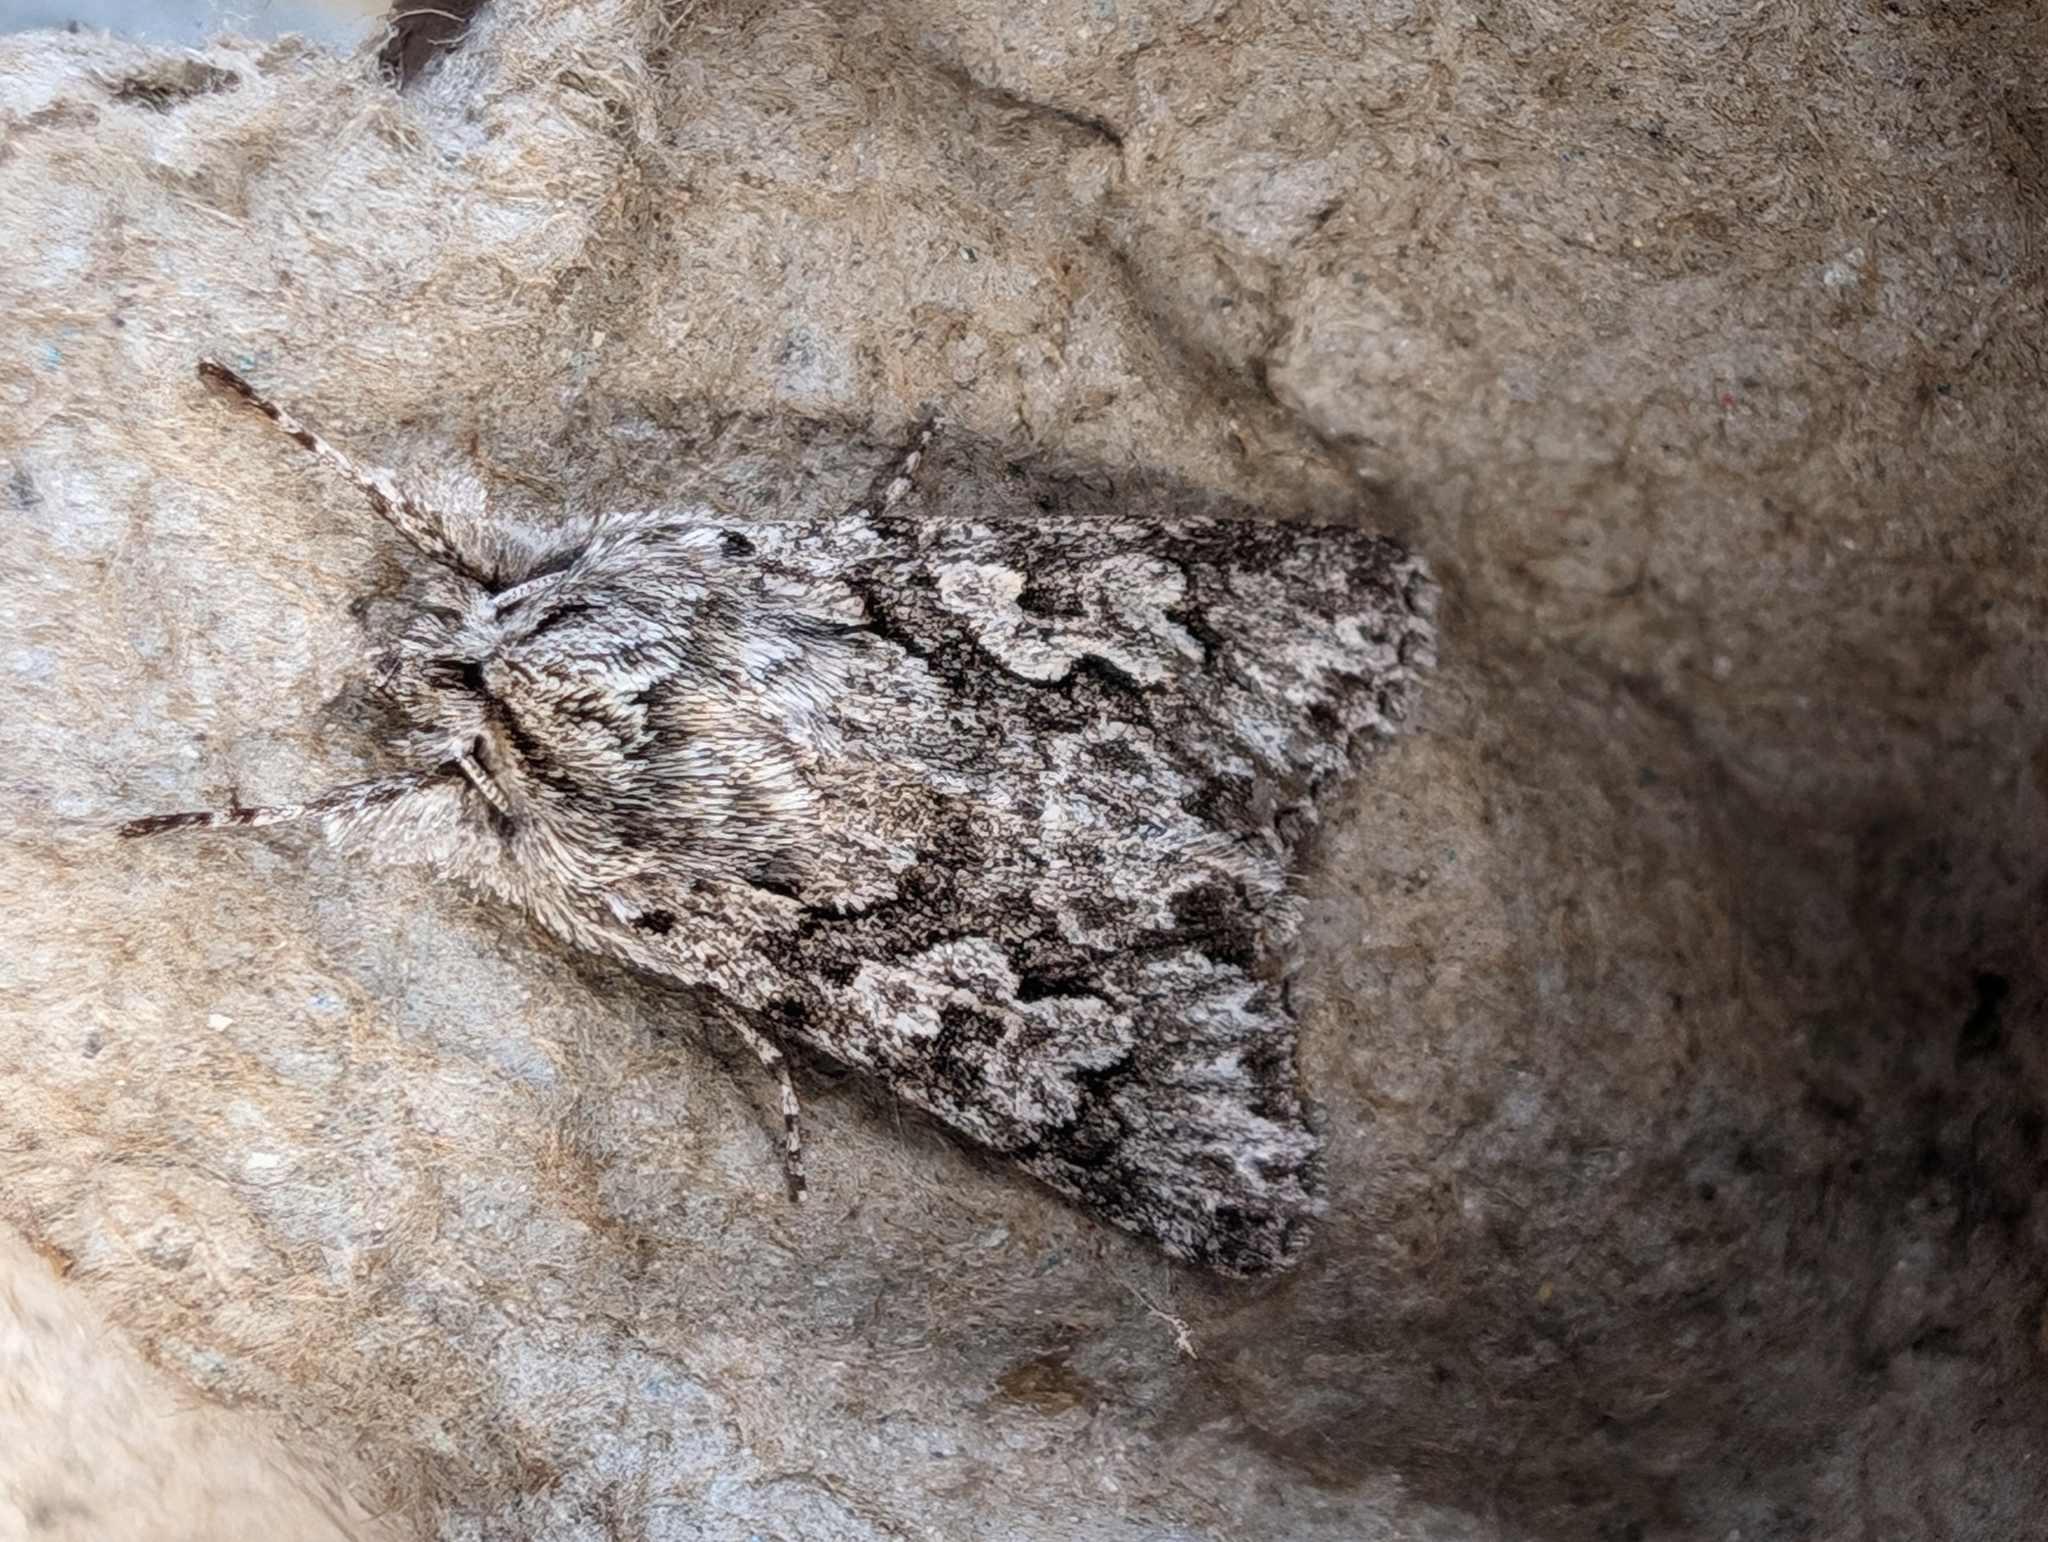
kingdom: Animalia
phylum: Arthropoda
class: Insecta
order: Lepidoptera
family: Noctuidae
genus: Xylocampa
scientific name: Xylocampa areola
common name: Early grey
